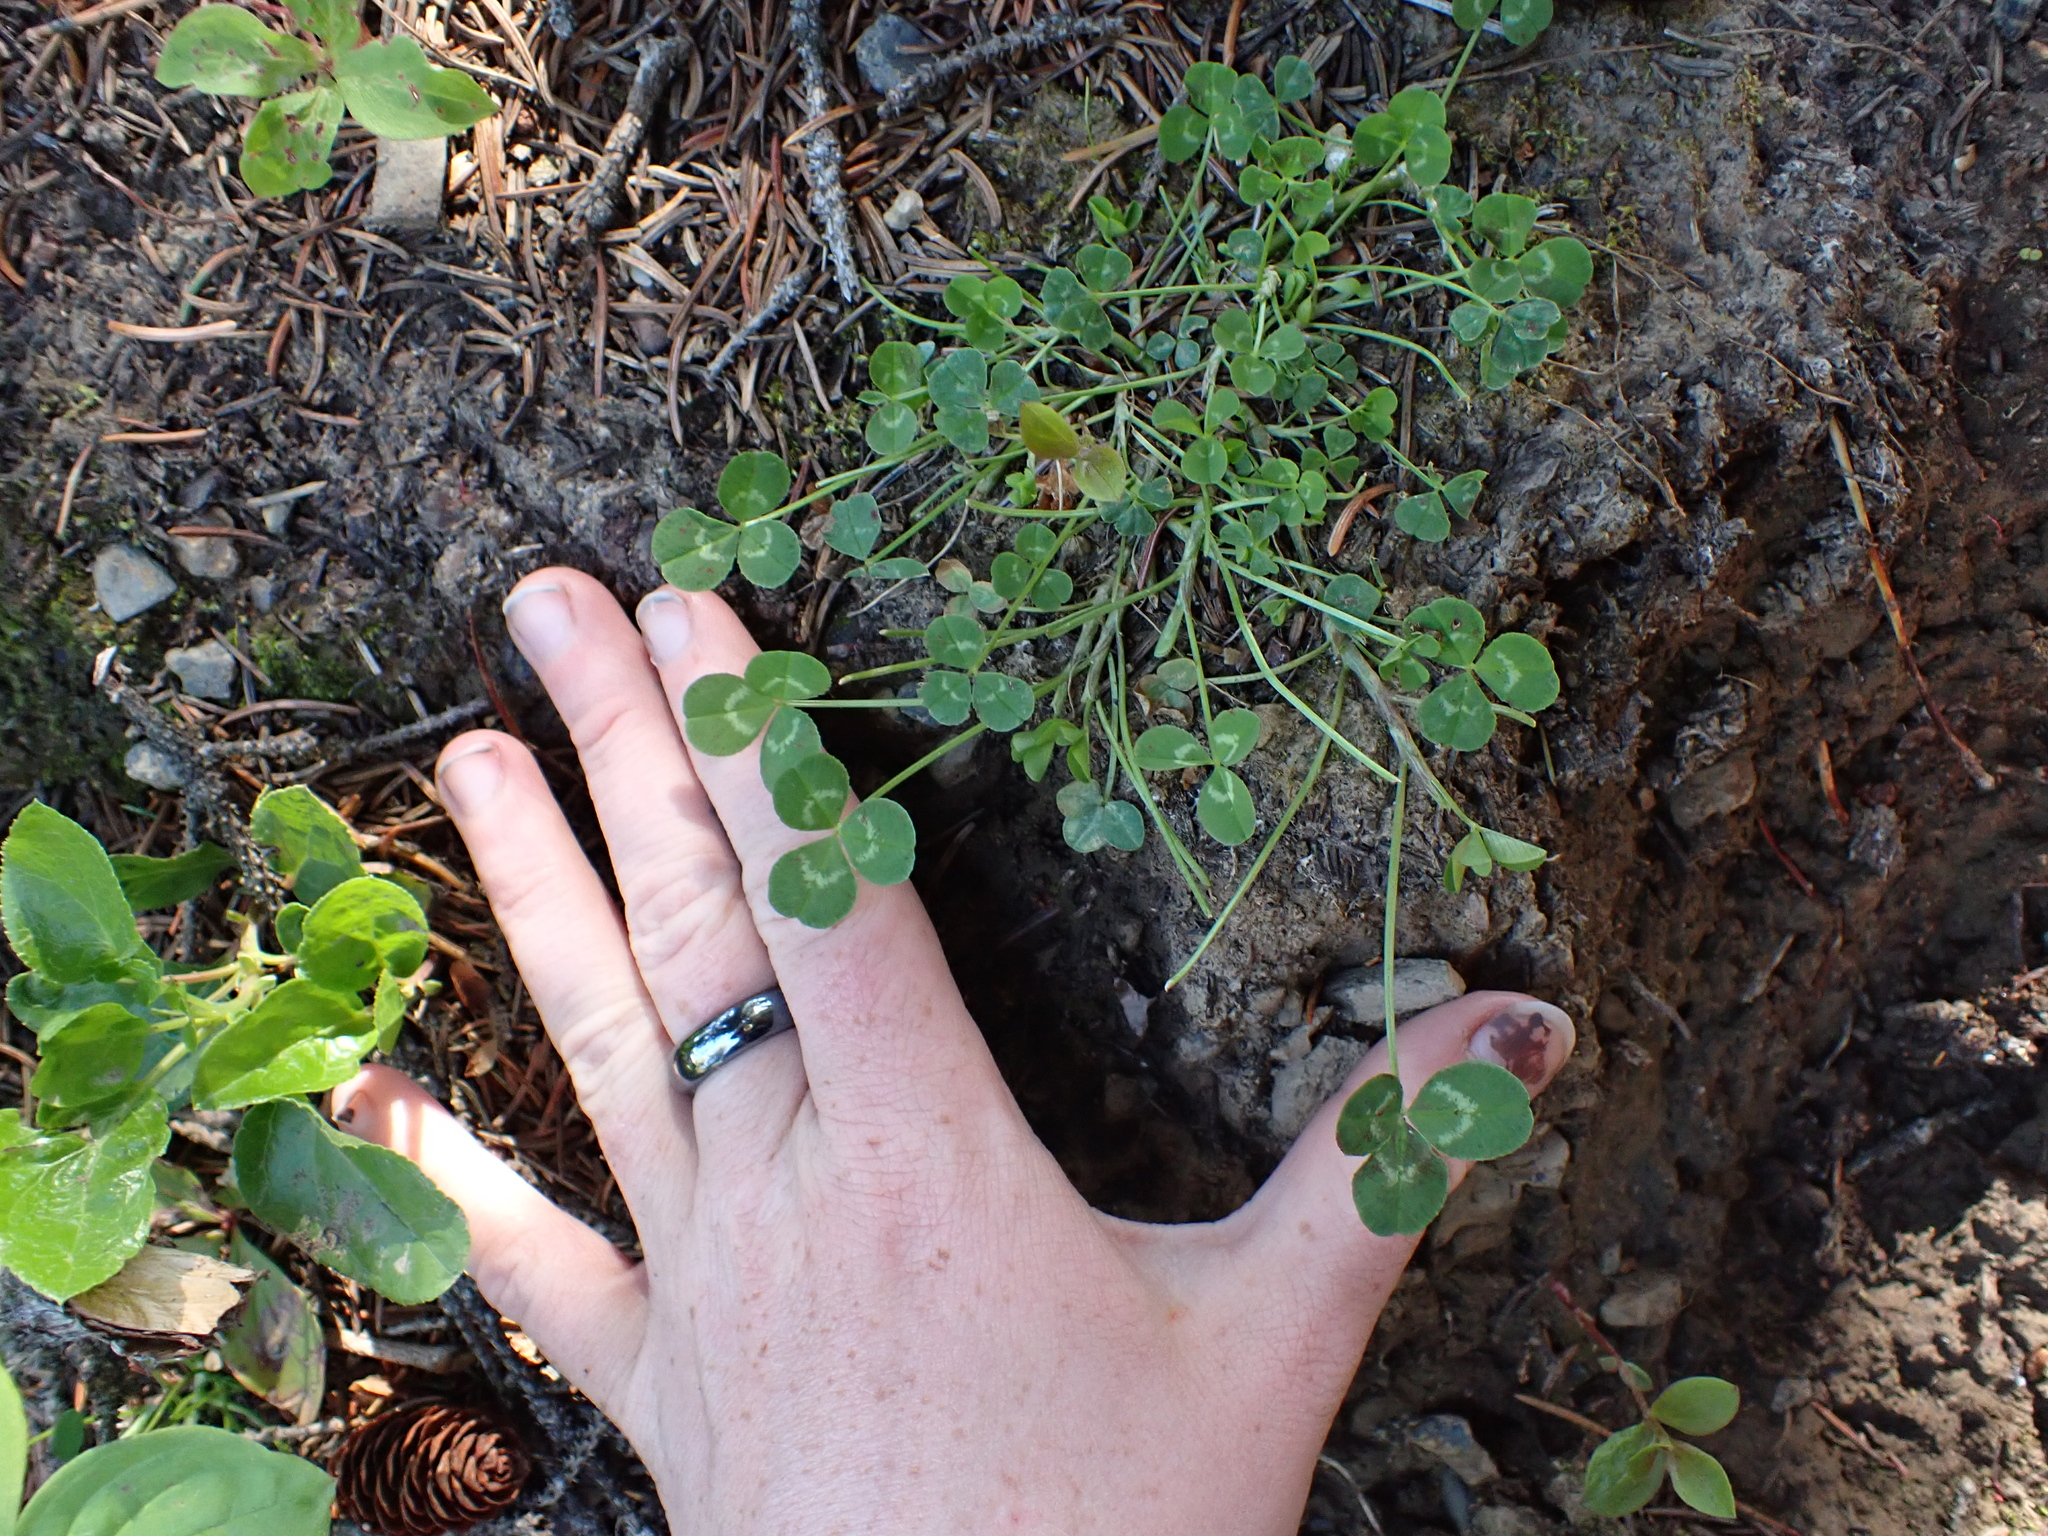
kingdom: Plantae
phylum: Tracheophyta
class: Magnoliopsida
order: Fabales
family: Fabaceae
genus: Trifolium
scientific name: Trifolium repens
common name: White clover
